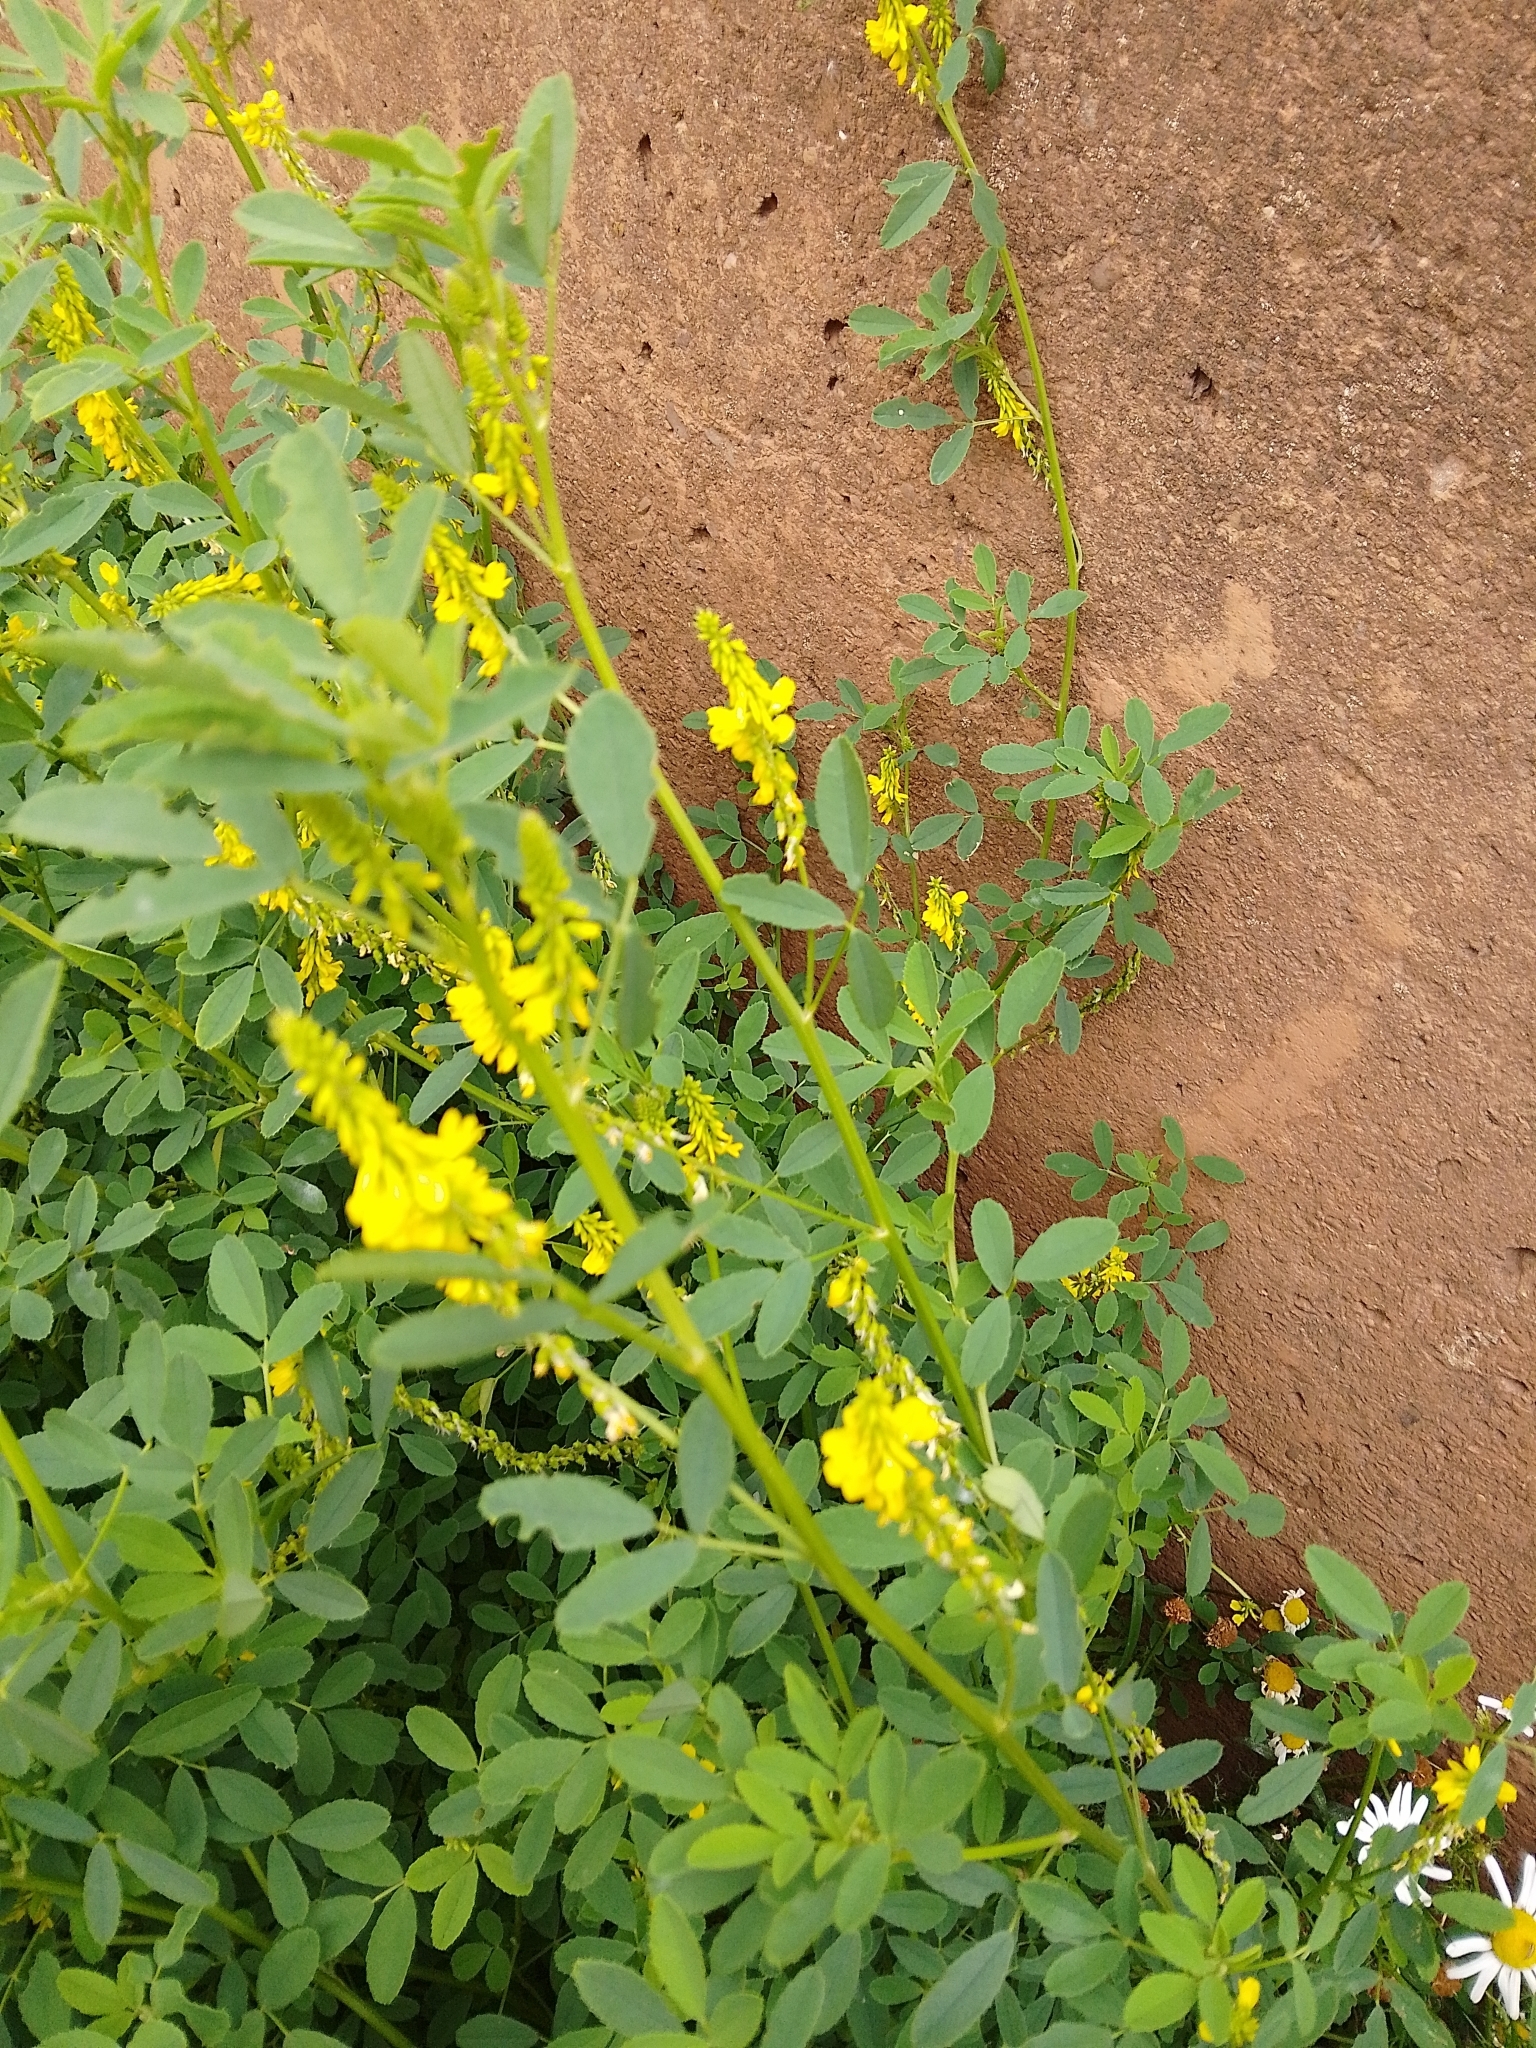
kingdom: Plantae
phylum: Tracheophyta
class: Magnoliopsida
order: Fabales
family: Fabaceae
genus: Melilotus
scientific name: Melilotus officinalis
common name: Sweetclover
